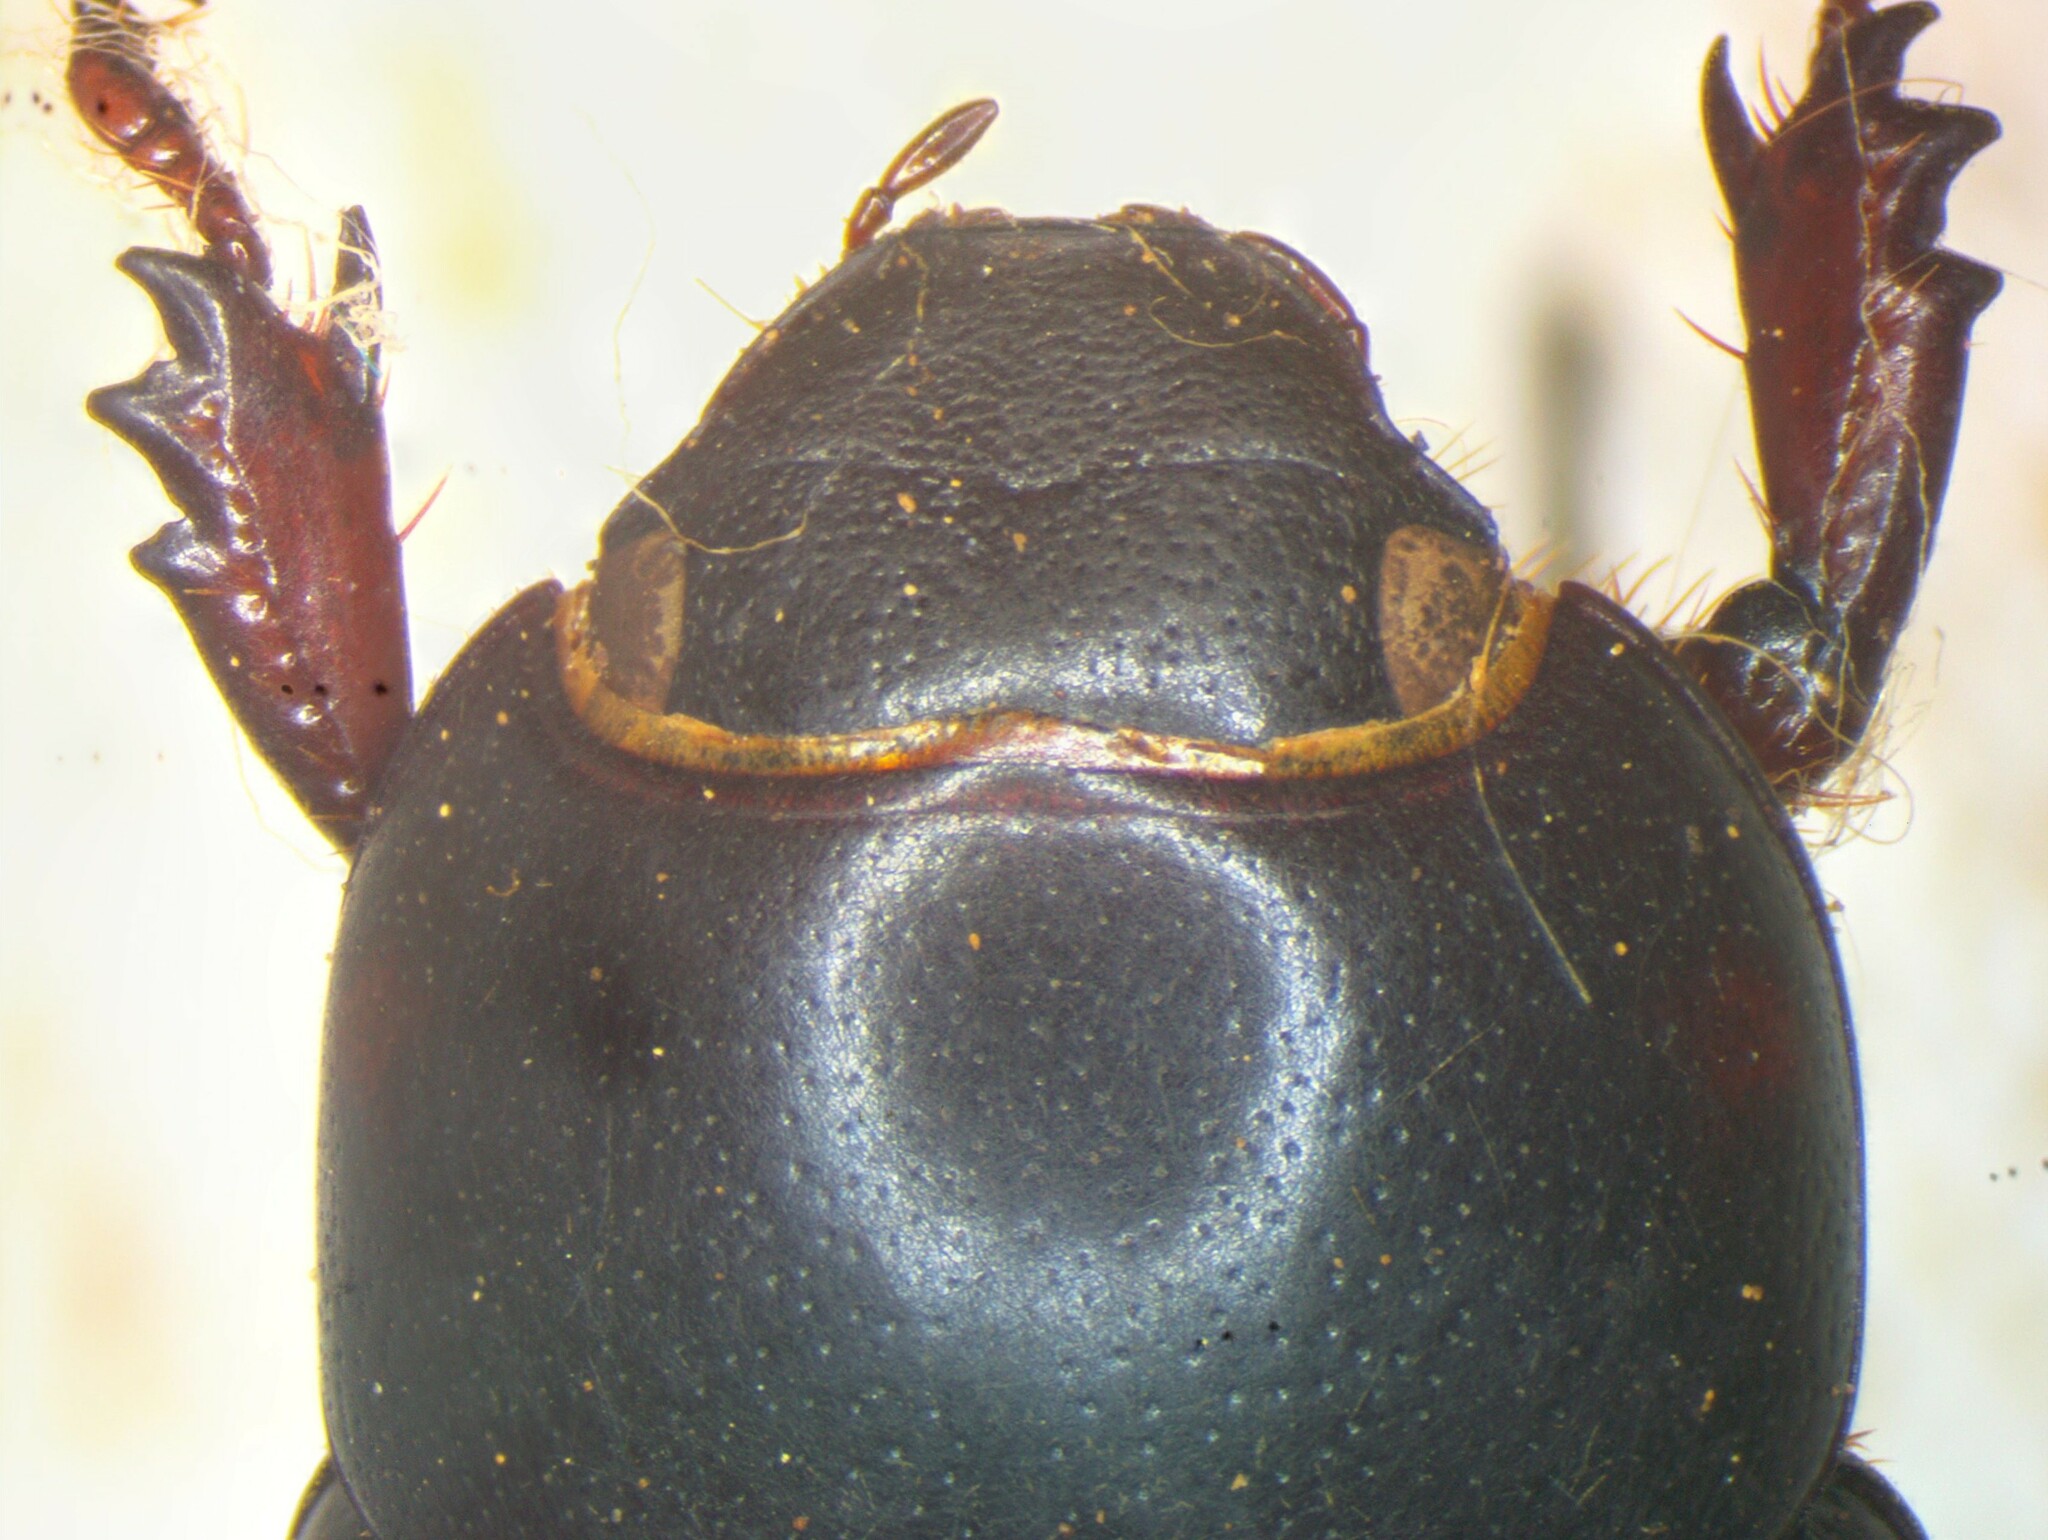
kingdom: Animalia
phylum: Arthropoda
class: Insecta
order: Coleoptera
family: Scarabaeidae
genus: Dyscinetus
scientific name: Dyscinetus rugifrons
